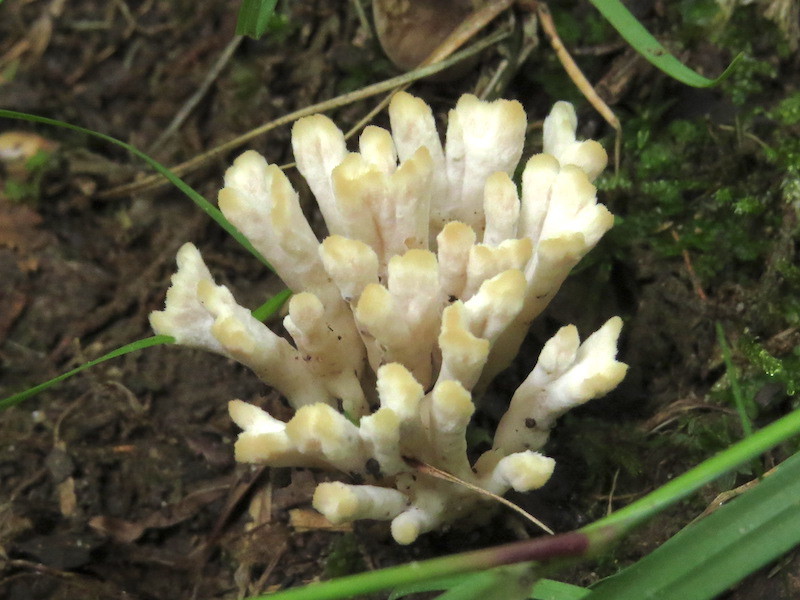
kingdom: Fungi
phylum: Basidiomycota
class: Agaricomycetes
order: Sebacinales
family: Sebacinaceae
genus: Sebacina
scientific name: Sebacina schweinitzii
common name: Jellied false coral fungus
